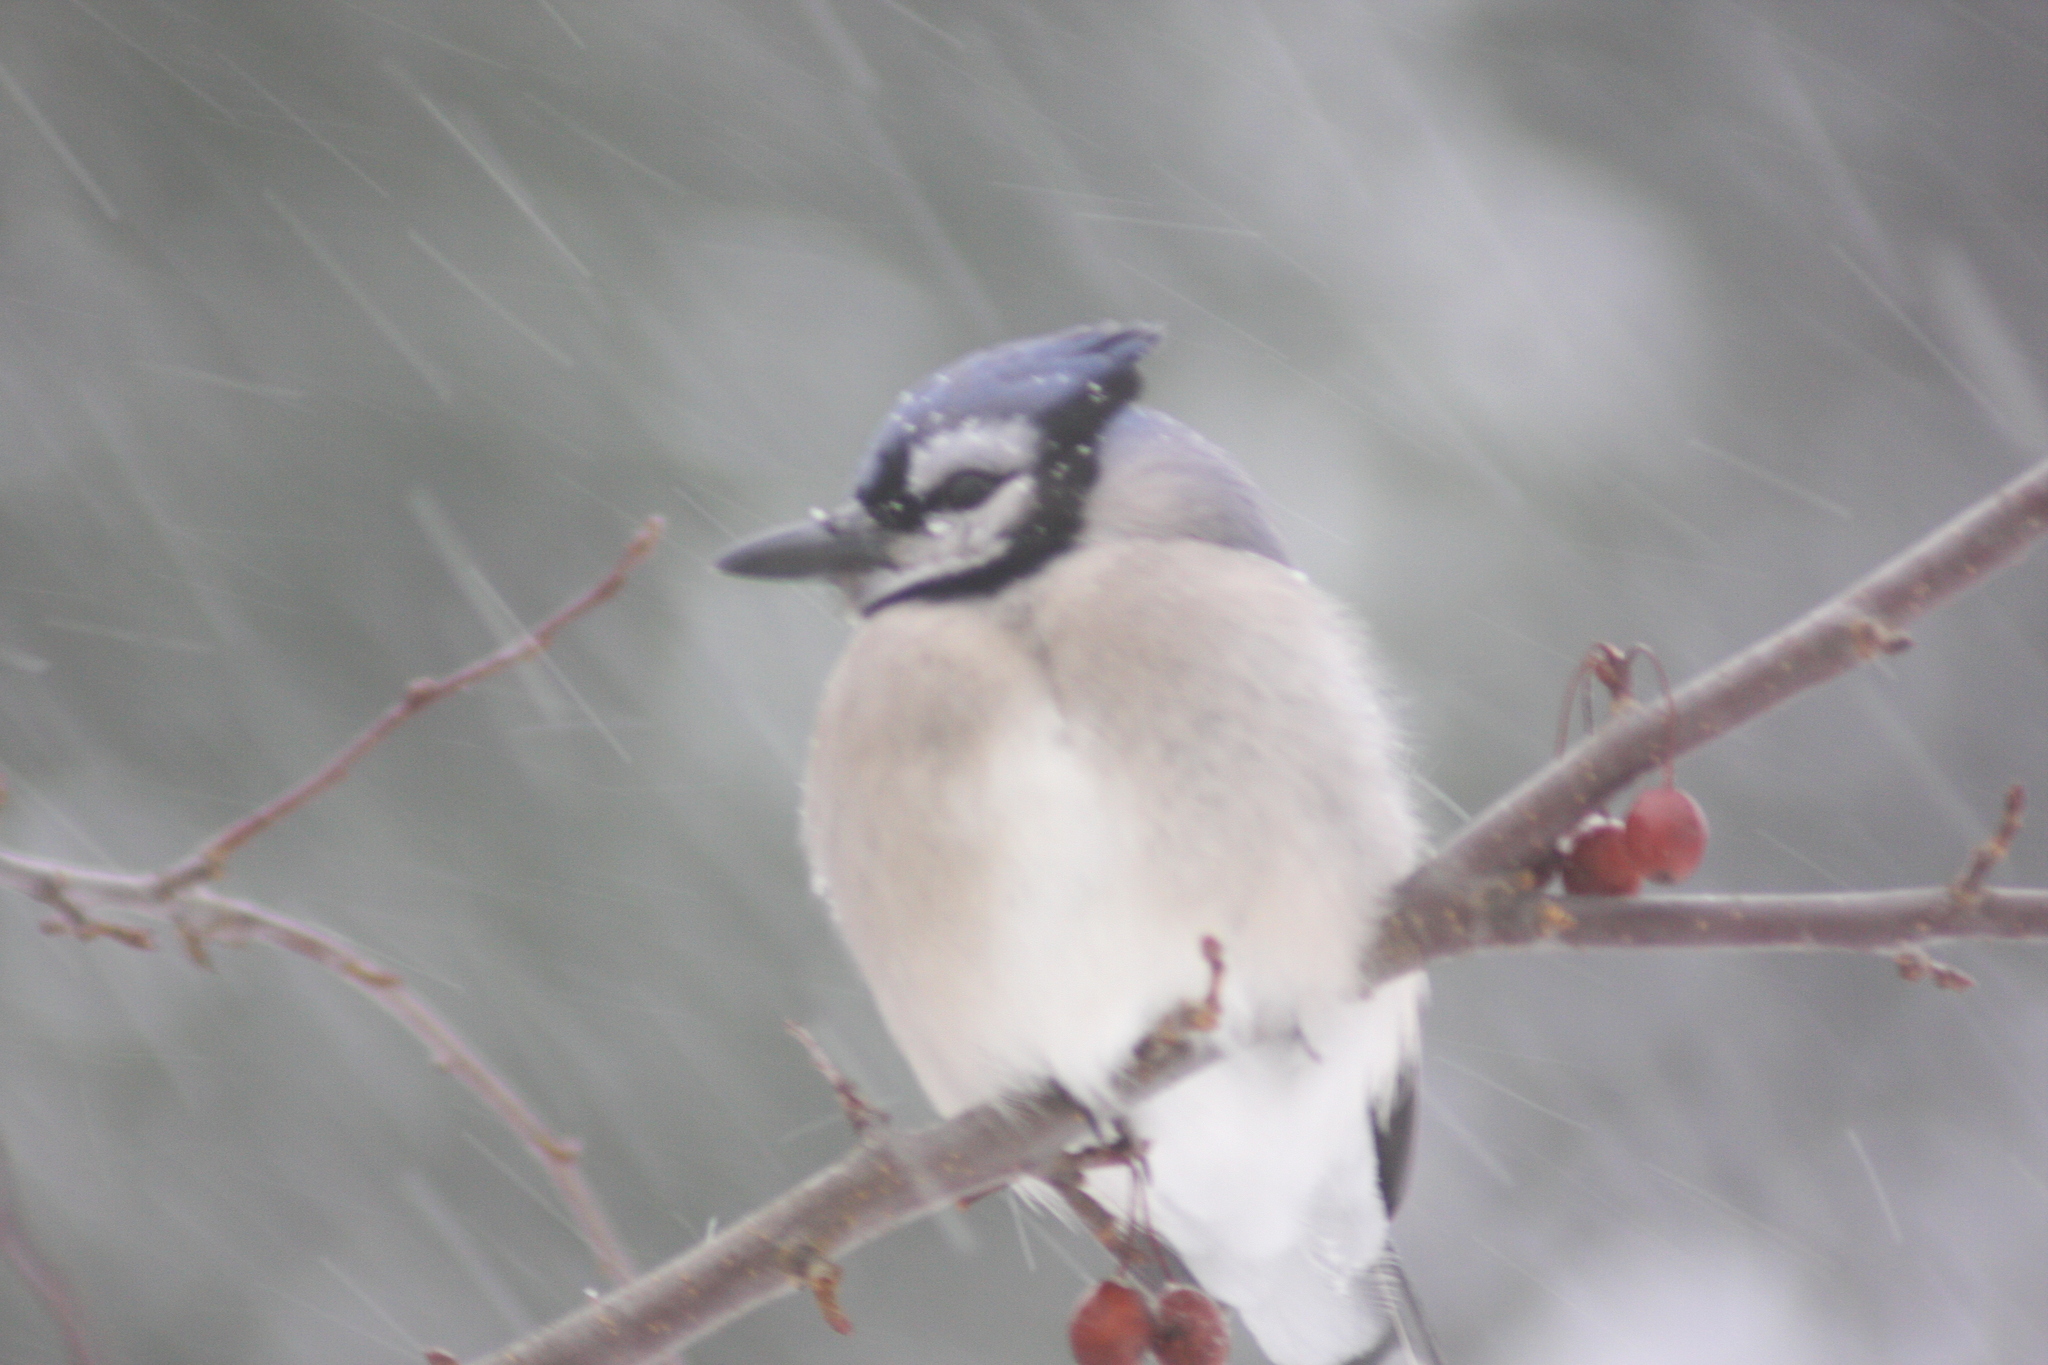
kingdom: Animalia
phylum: Chordata
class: Aves
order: Passeriformes
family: Corvidae
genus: Cyanocitta
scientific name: Cyanocitta cristata
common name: Blue jay
